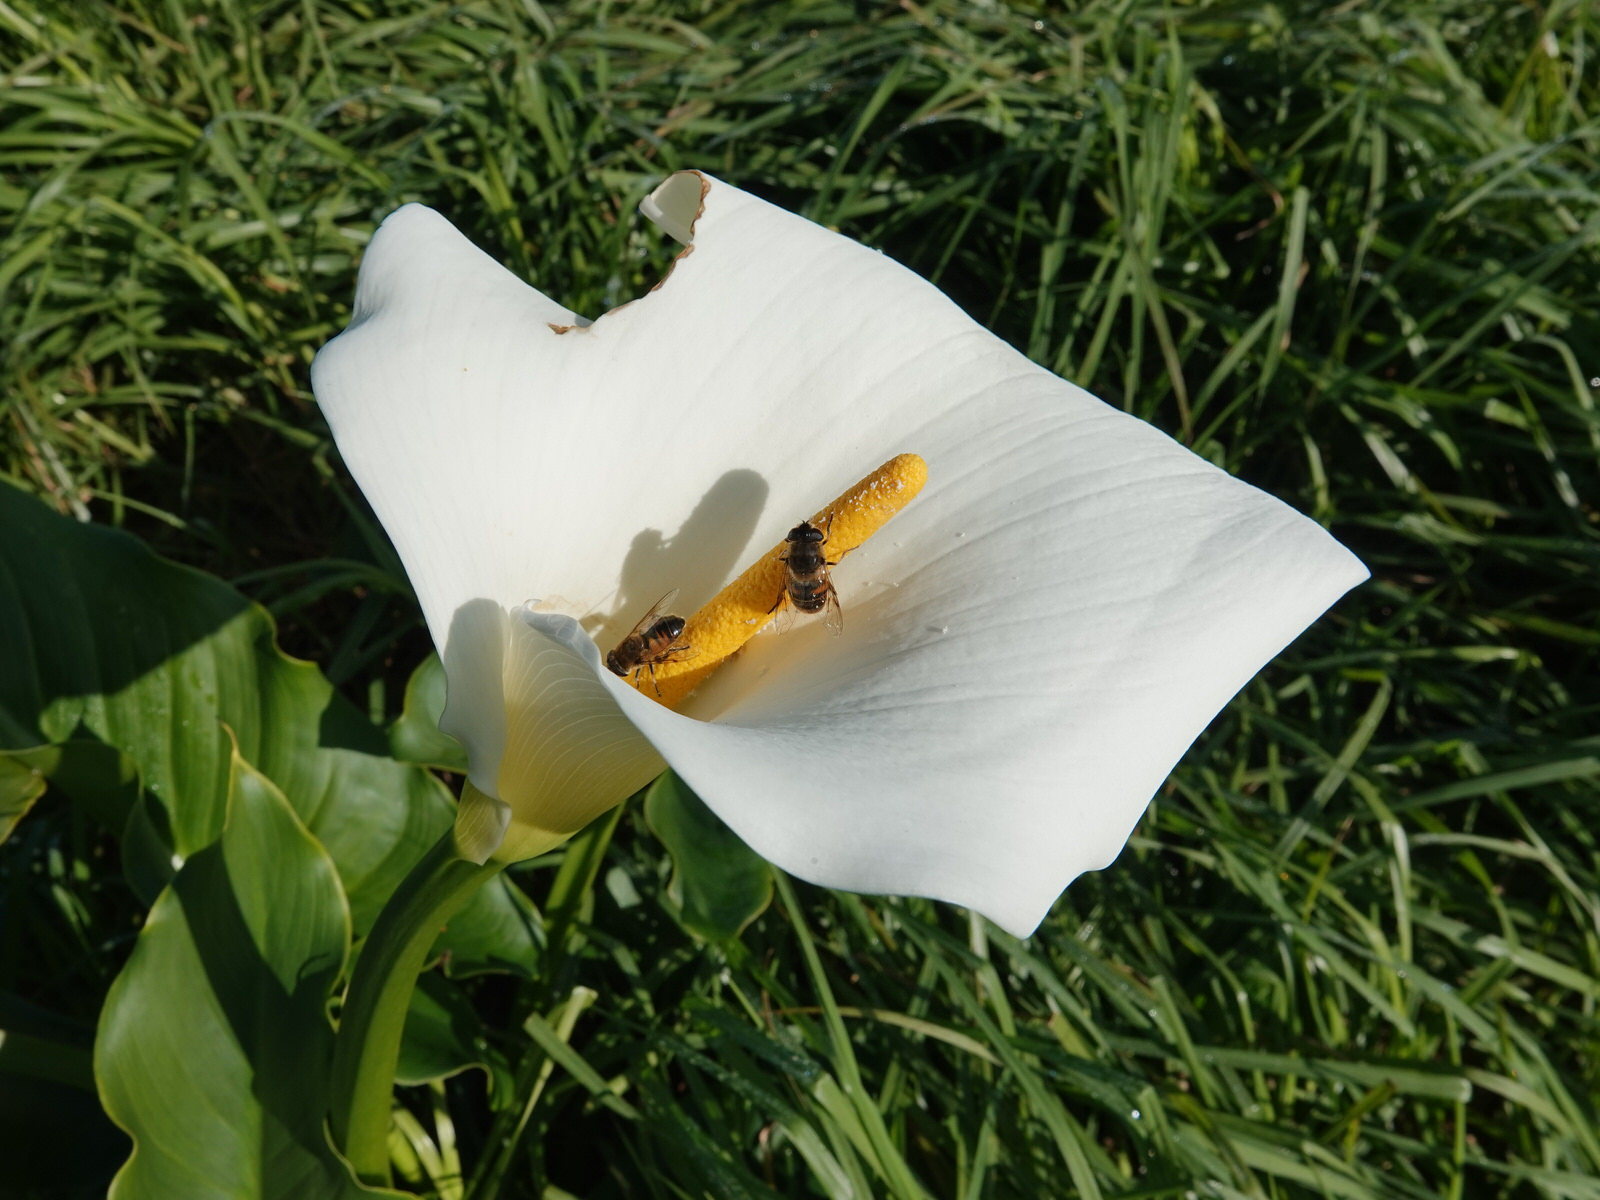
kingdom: Plantae
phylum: Tracheophyta
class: Liliopsida
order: Alismatales
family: Araceae
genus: Zantedeschia
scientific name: Zantedeschia aethiopica
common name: Altar-lily
